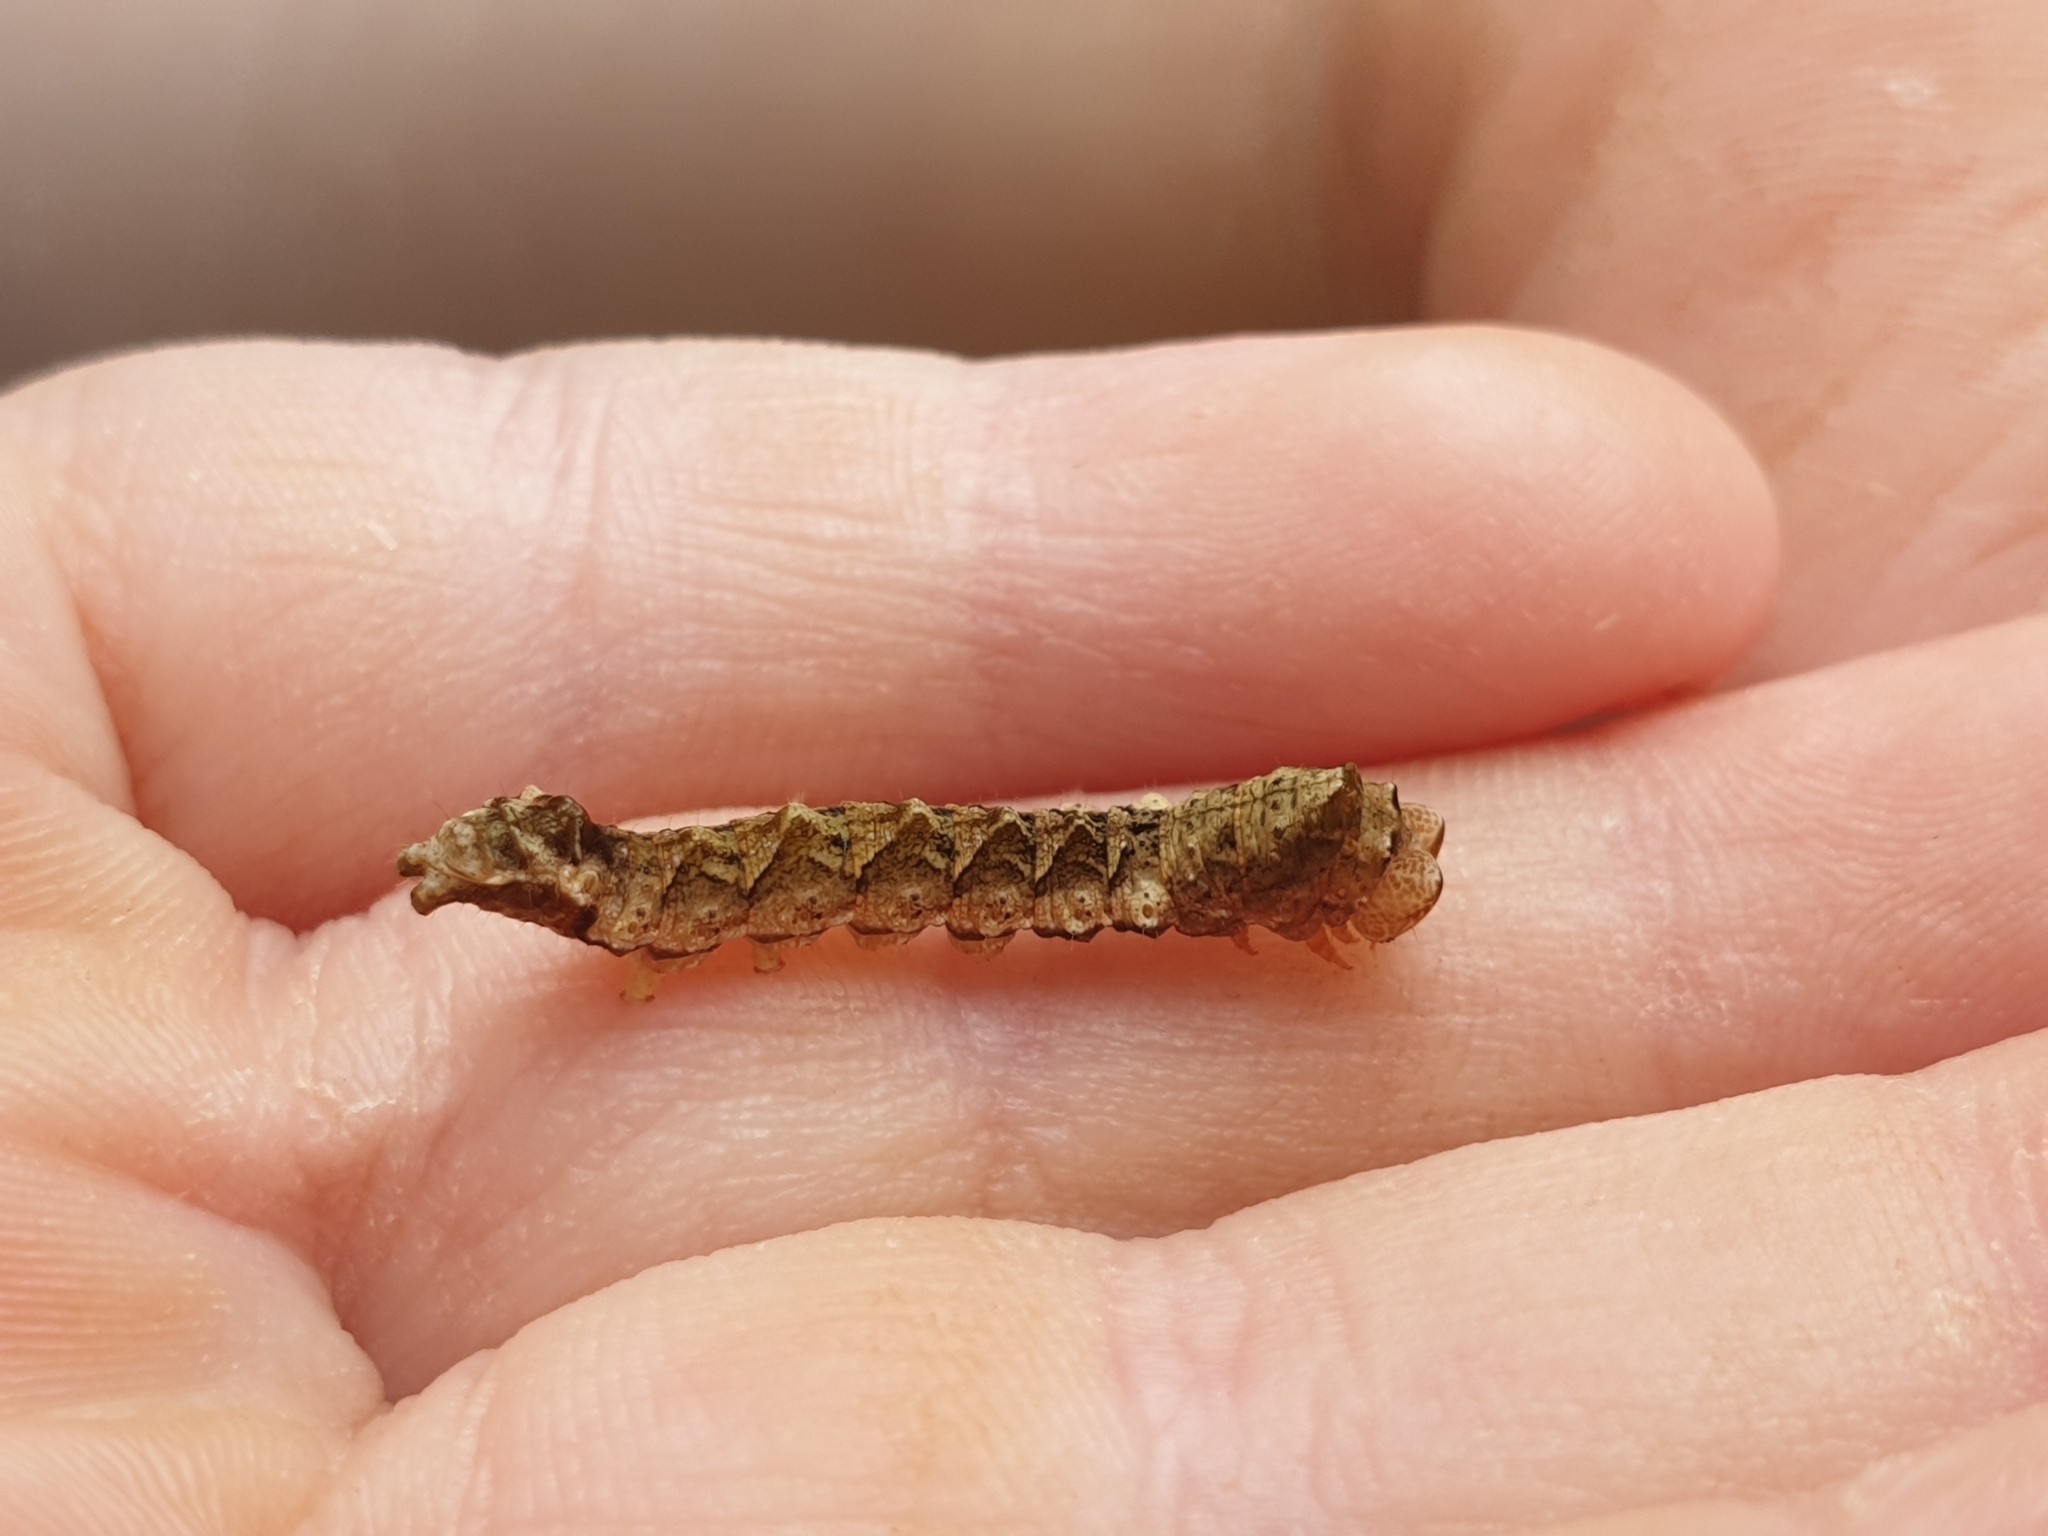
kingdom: Animalia
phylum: Arthropoda
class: Insecta
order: Lepidoptera
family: Drepanidae
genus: Thyatira
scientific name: Thyatira batis
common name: Peach blossom
